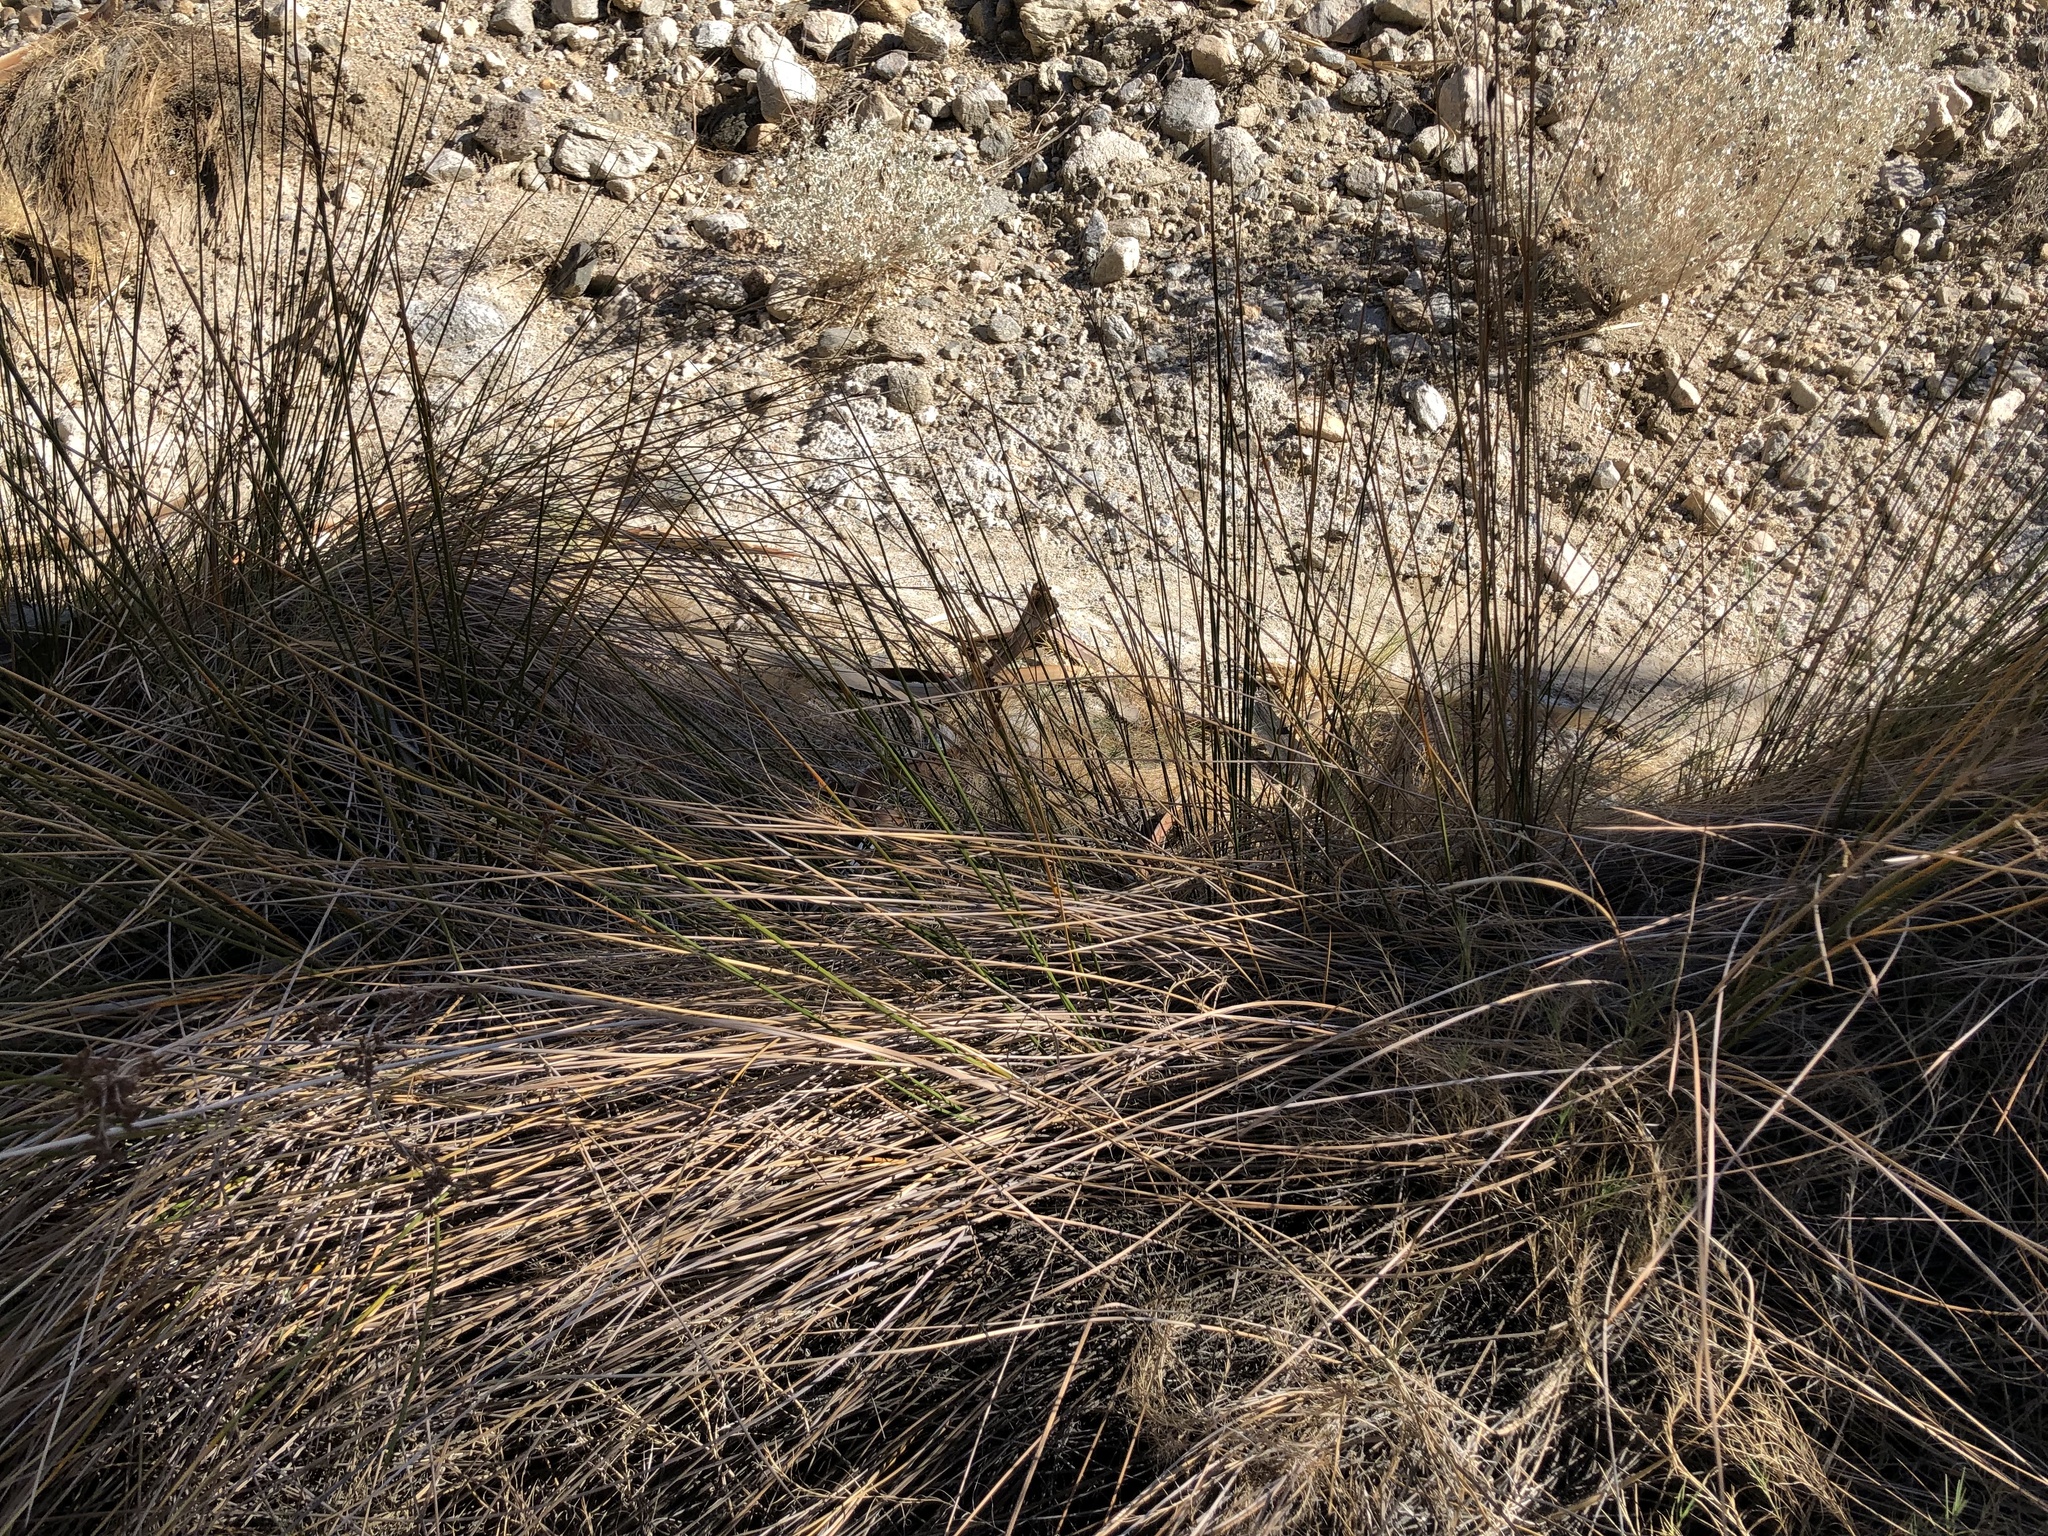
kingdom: Plantae
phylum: Tracheophyta
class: Liliopsida
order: Poales
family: Juncaceae
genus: Juncus
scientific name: Juncus acutus
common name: Sharp rush
